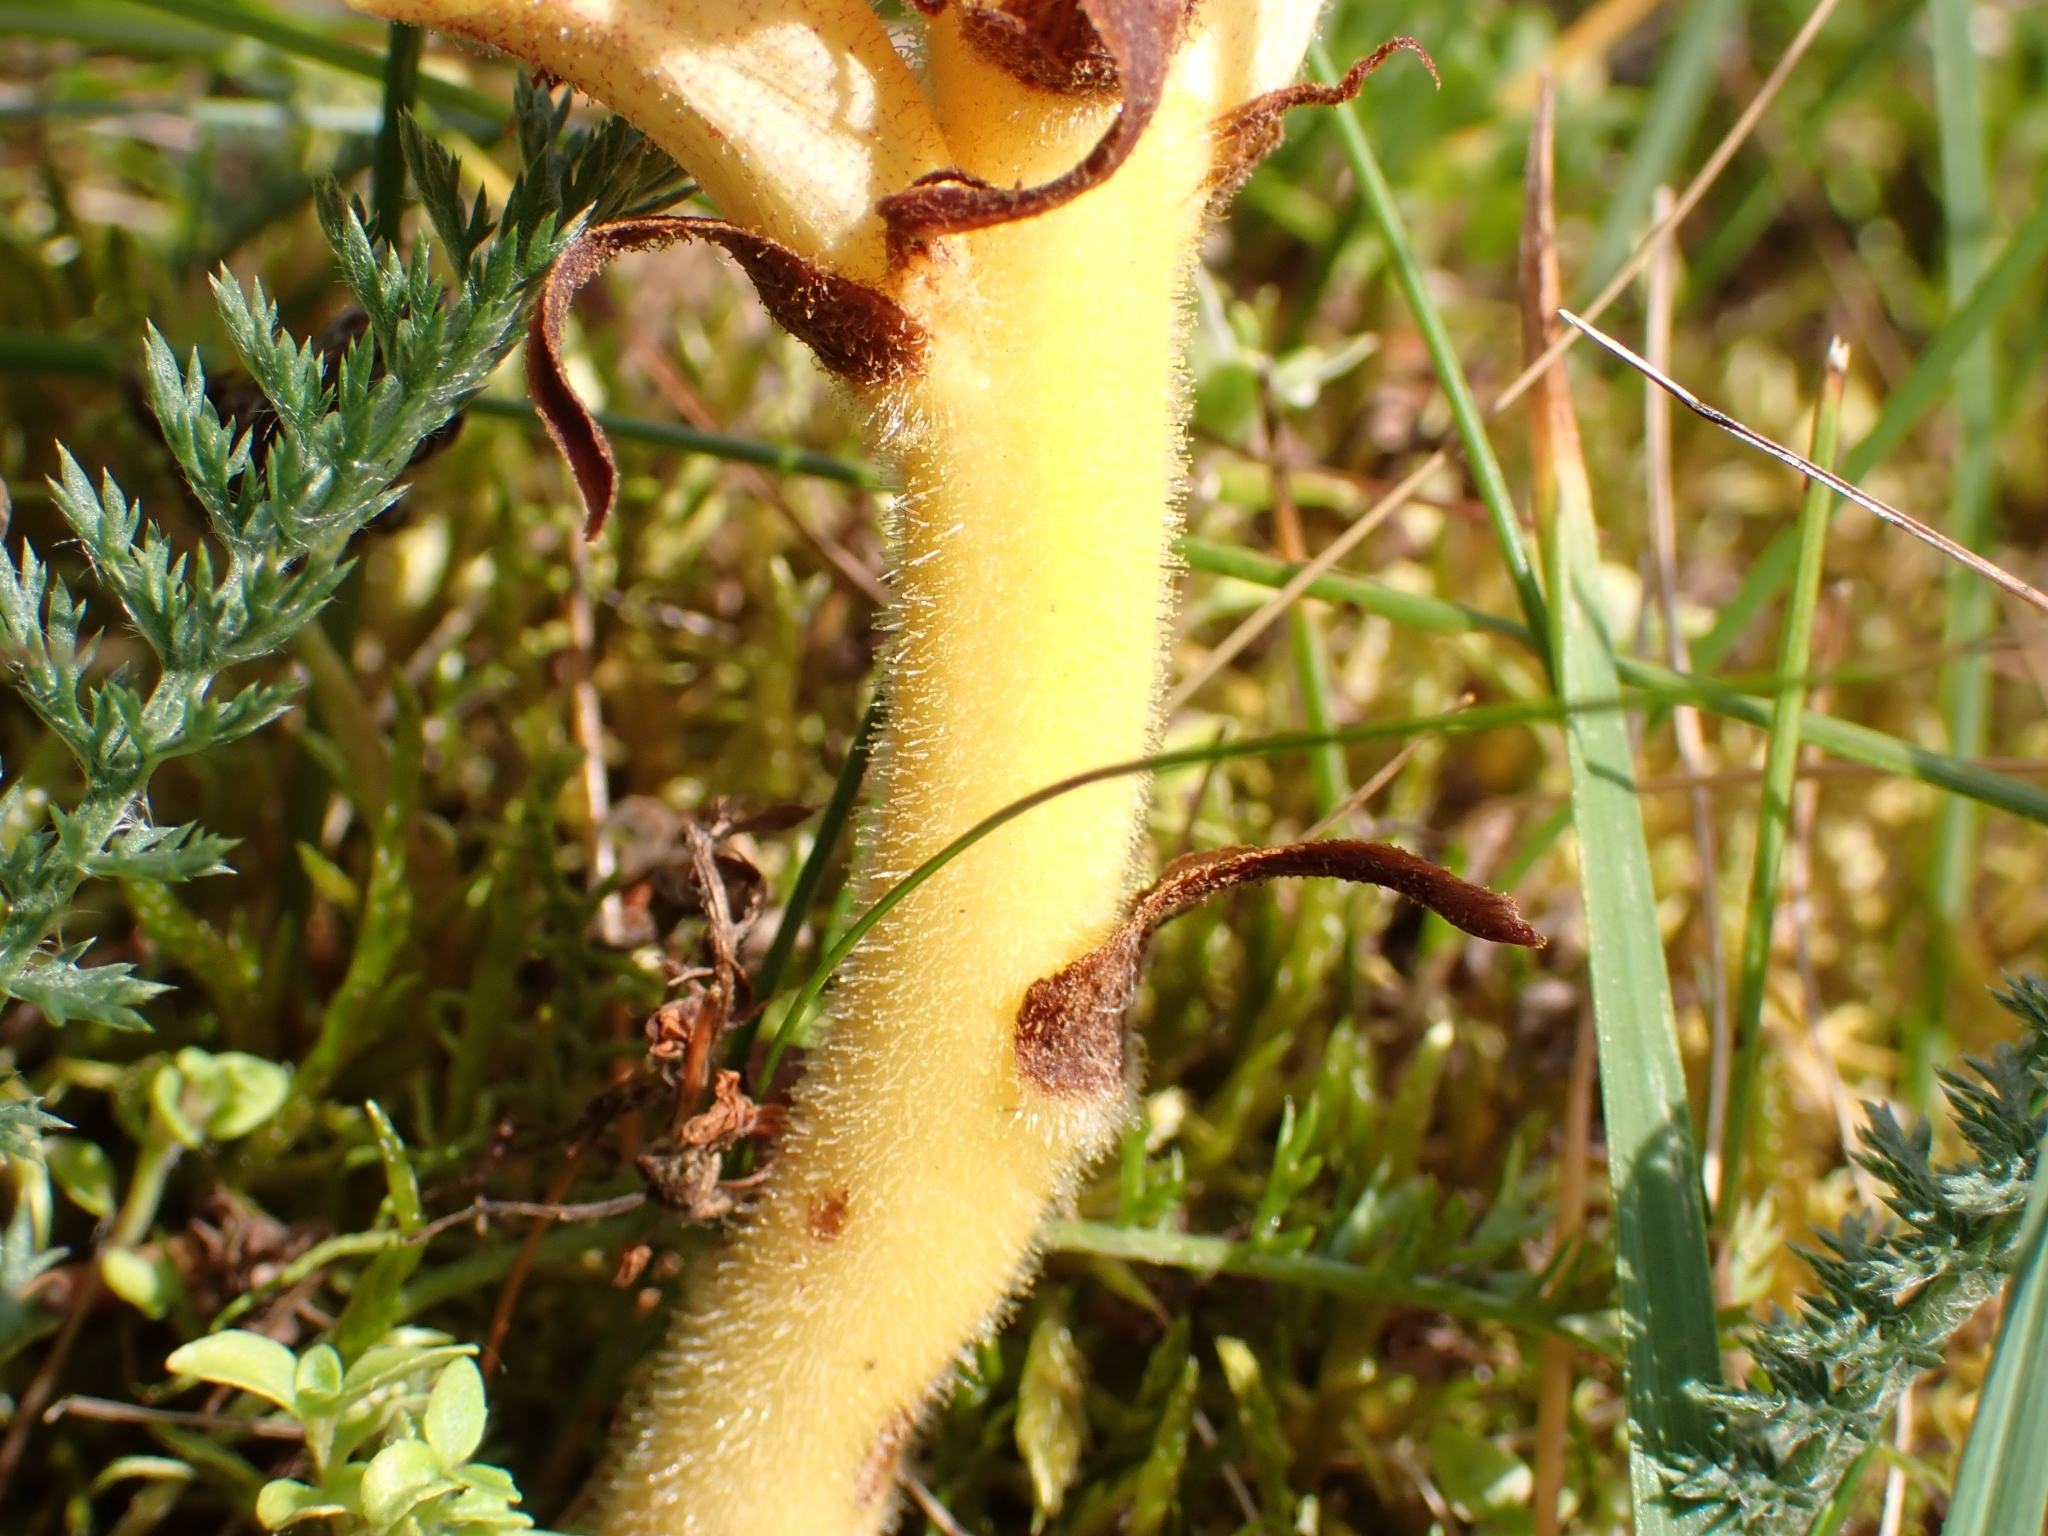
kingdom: Plantae
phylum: Tracheophyta
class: Magnoliopsida
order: Lamiales
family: Orobanchaceae
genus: Orobanche
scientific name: Orobanche alba
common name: Thyme broomrape
